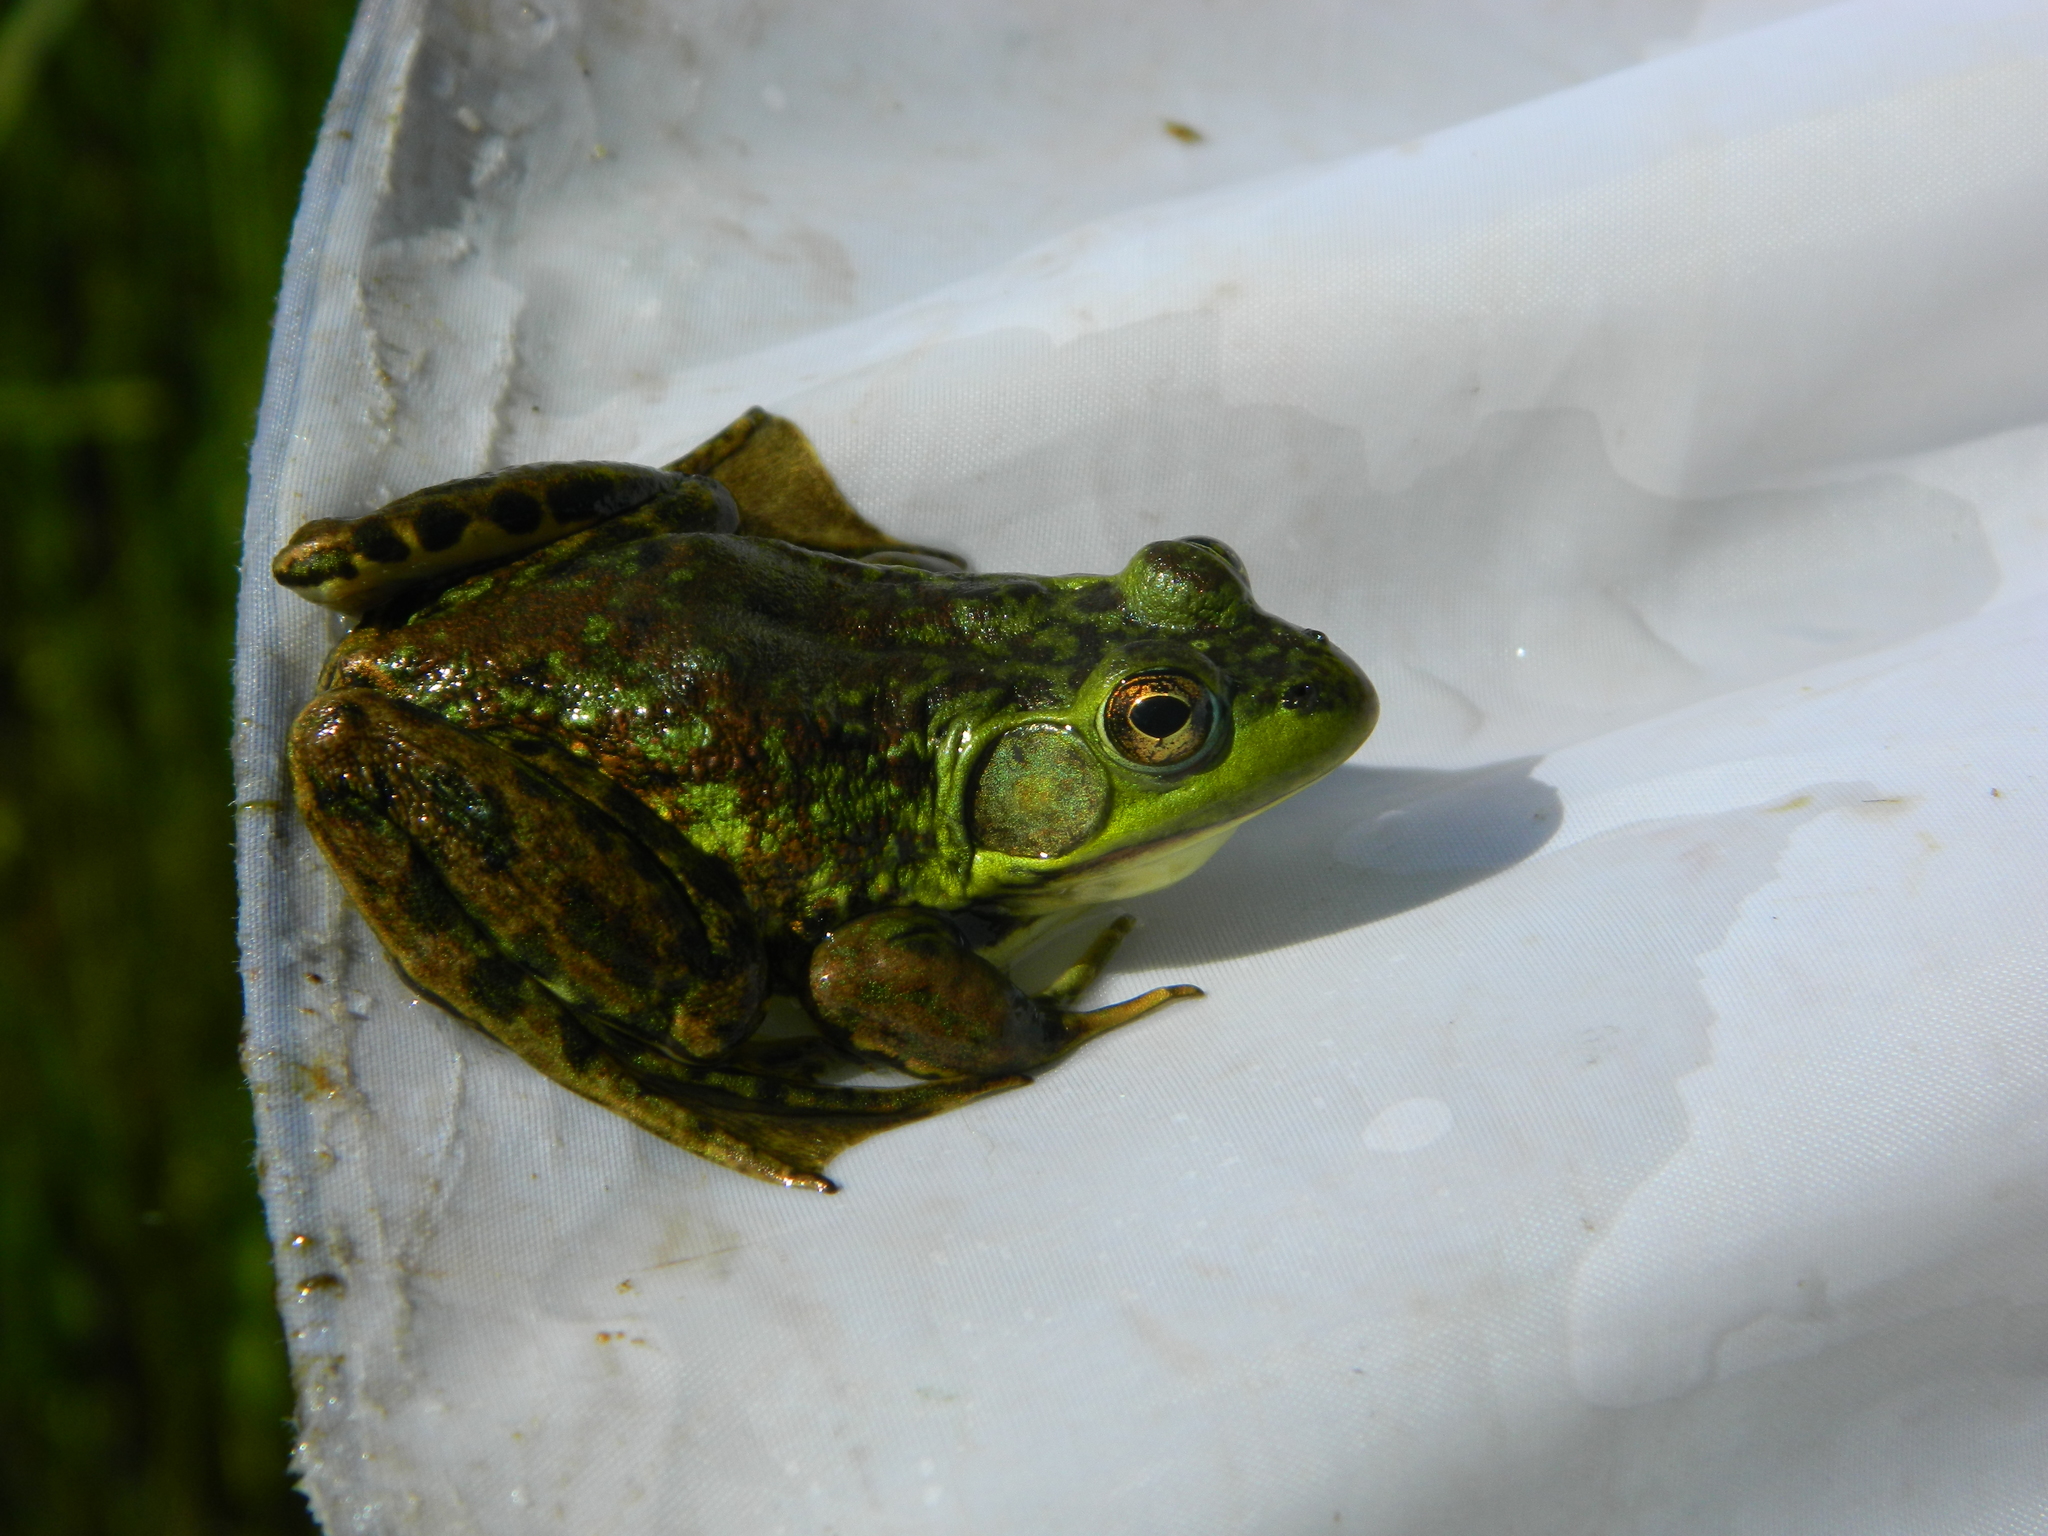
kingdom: Animalia
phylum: Chordata
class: Amphibia
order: Anura
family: Ranidae
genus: Lithobates
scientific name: Lithobates septentrionalis
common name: Mink frog
